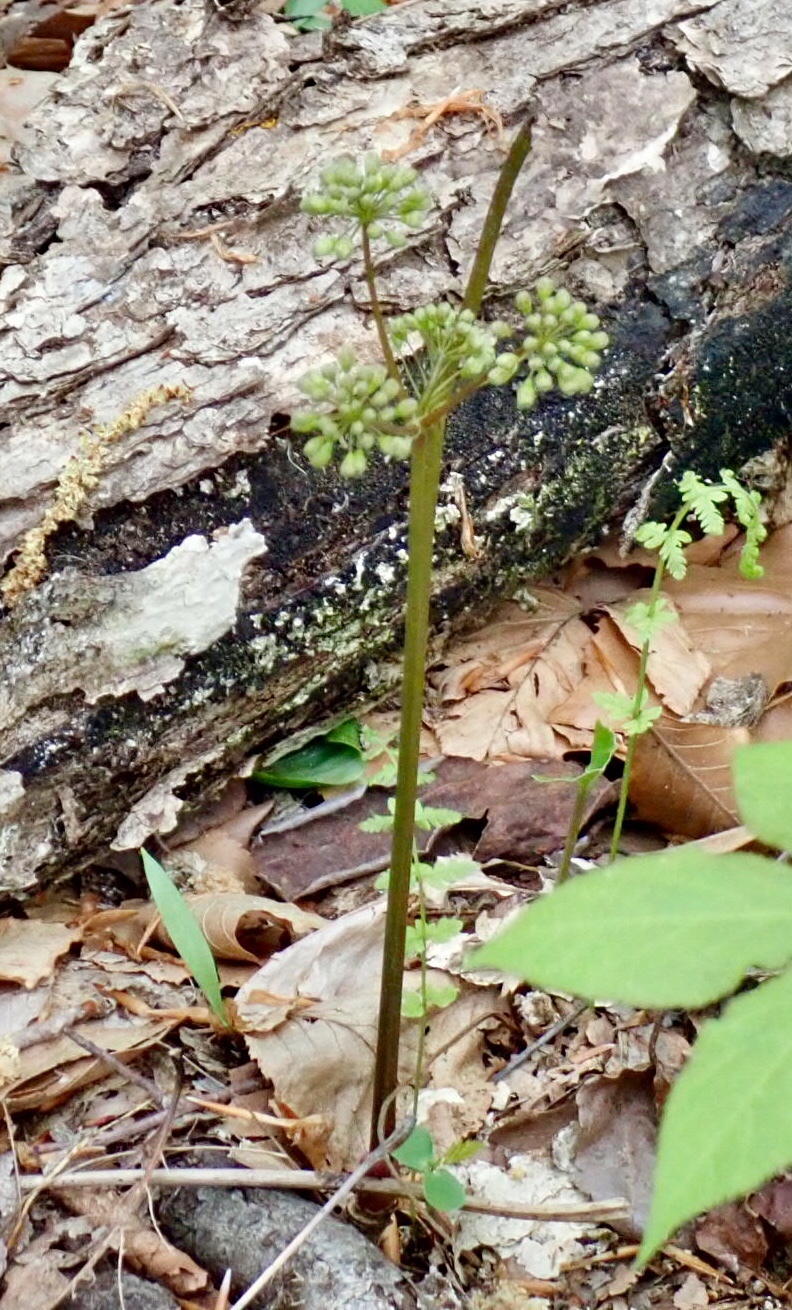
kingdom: Plantae
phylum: Tracheophyta
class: Magnoliopsida
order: Apiales
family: Araliaceae
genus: Aralia
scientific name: Aralia nudicaulis
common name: Wild sarsaparilla
